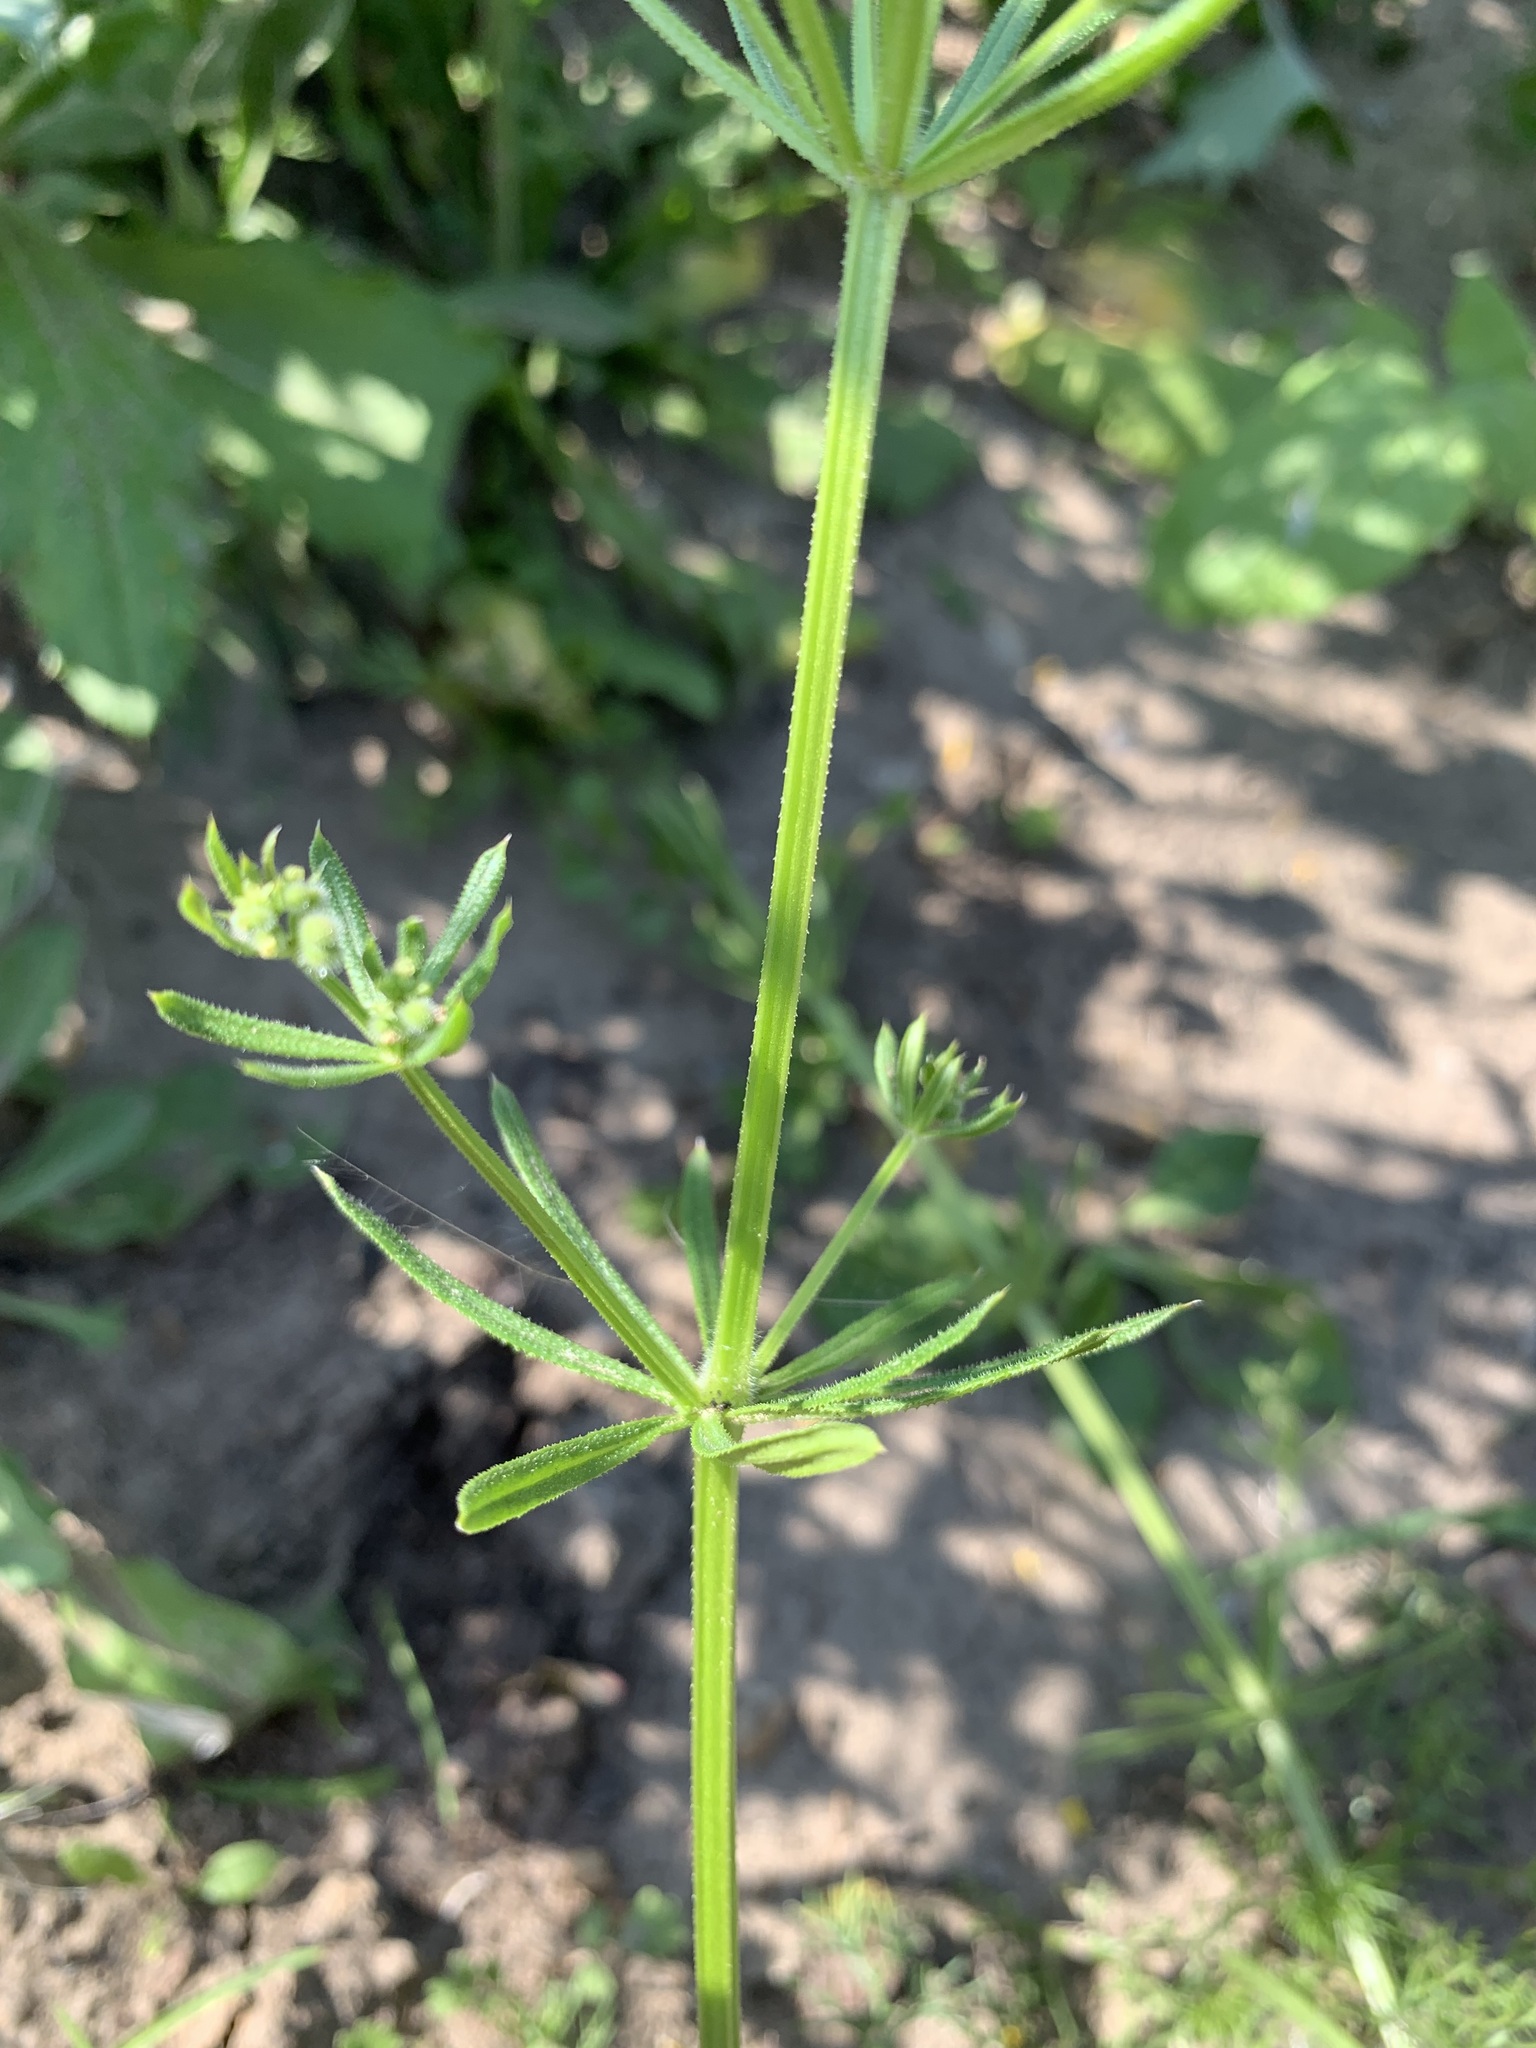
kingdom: Plantae
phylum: Tracheophyta
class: Magnoliopsida
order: Gentianales
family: Rubiaceae
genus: Galium
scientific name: Galium spurium
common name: False cleavers
